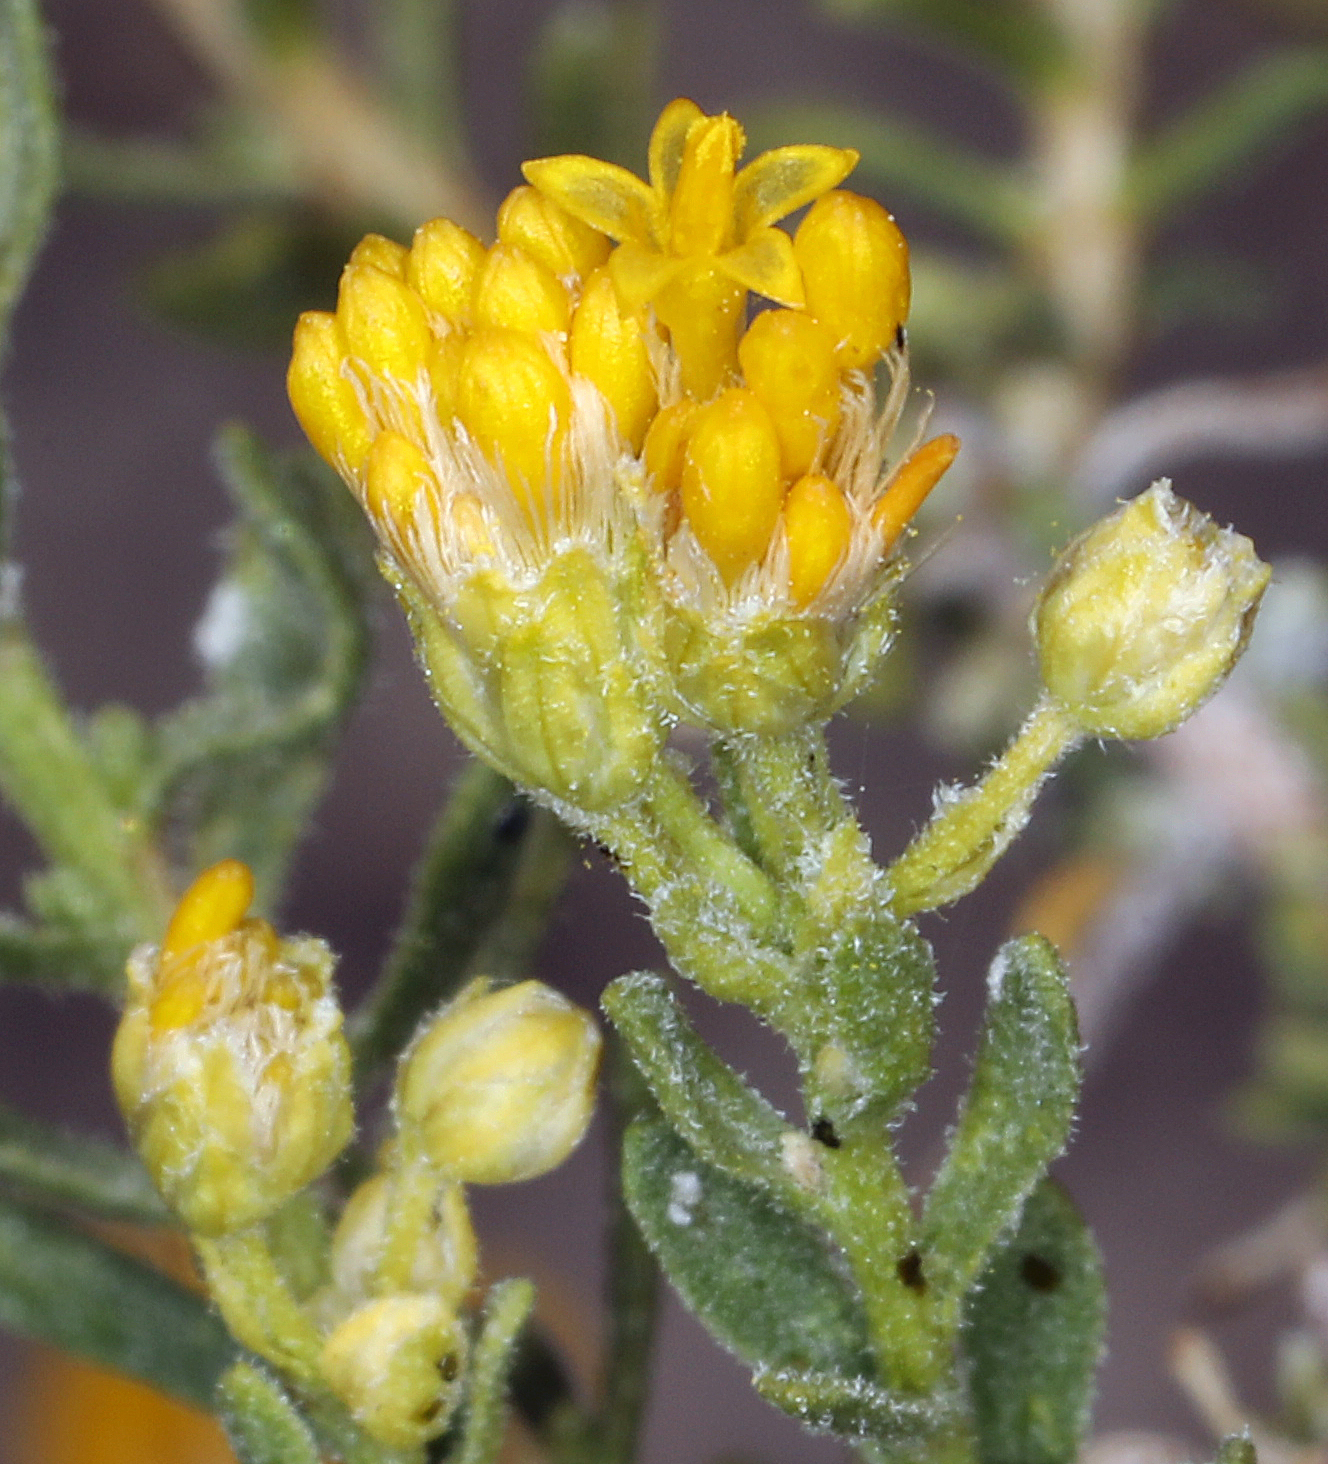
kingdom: Plantae
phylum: Tracheophyta
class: Magnoliopsida
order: Asterales
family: Asteraceae
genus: Ericameria
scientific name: Ericameria cooperi
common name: Cooper's goldenbush
